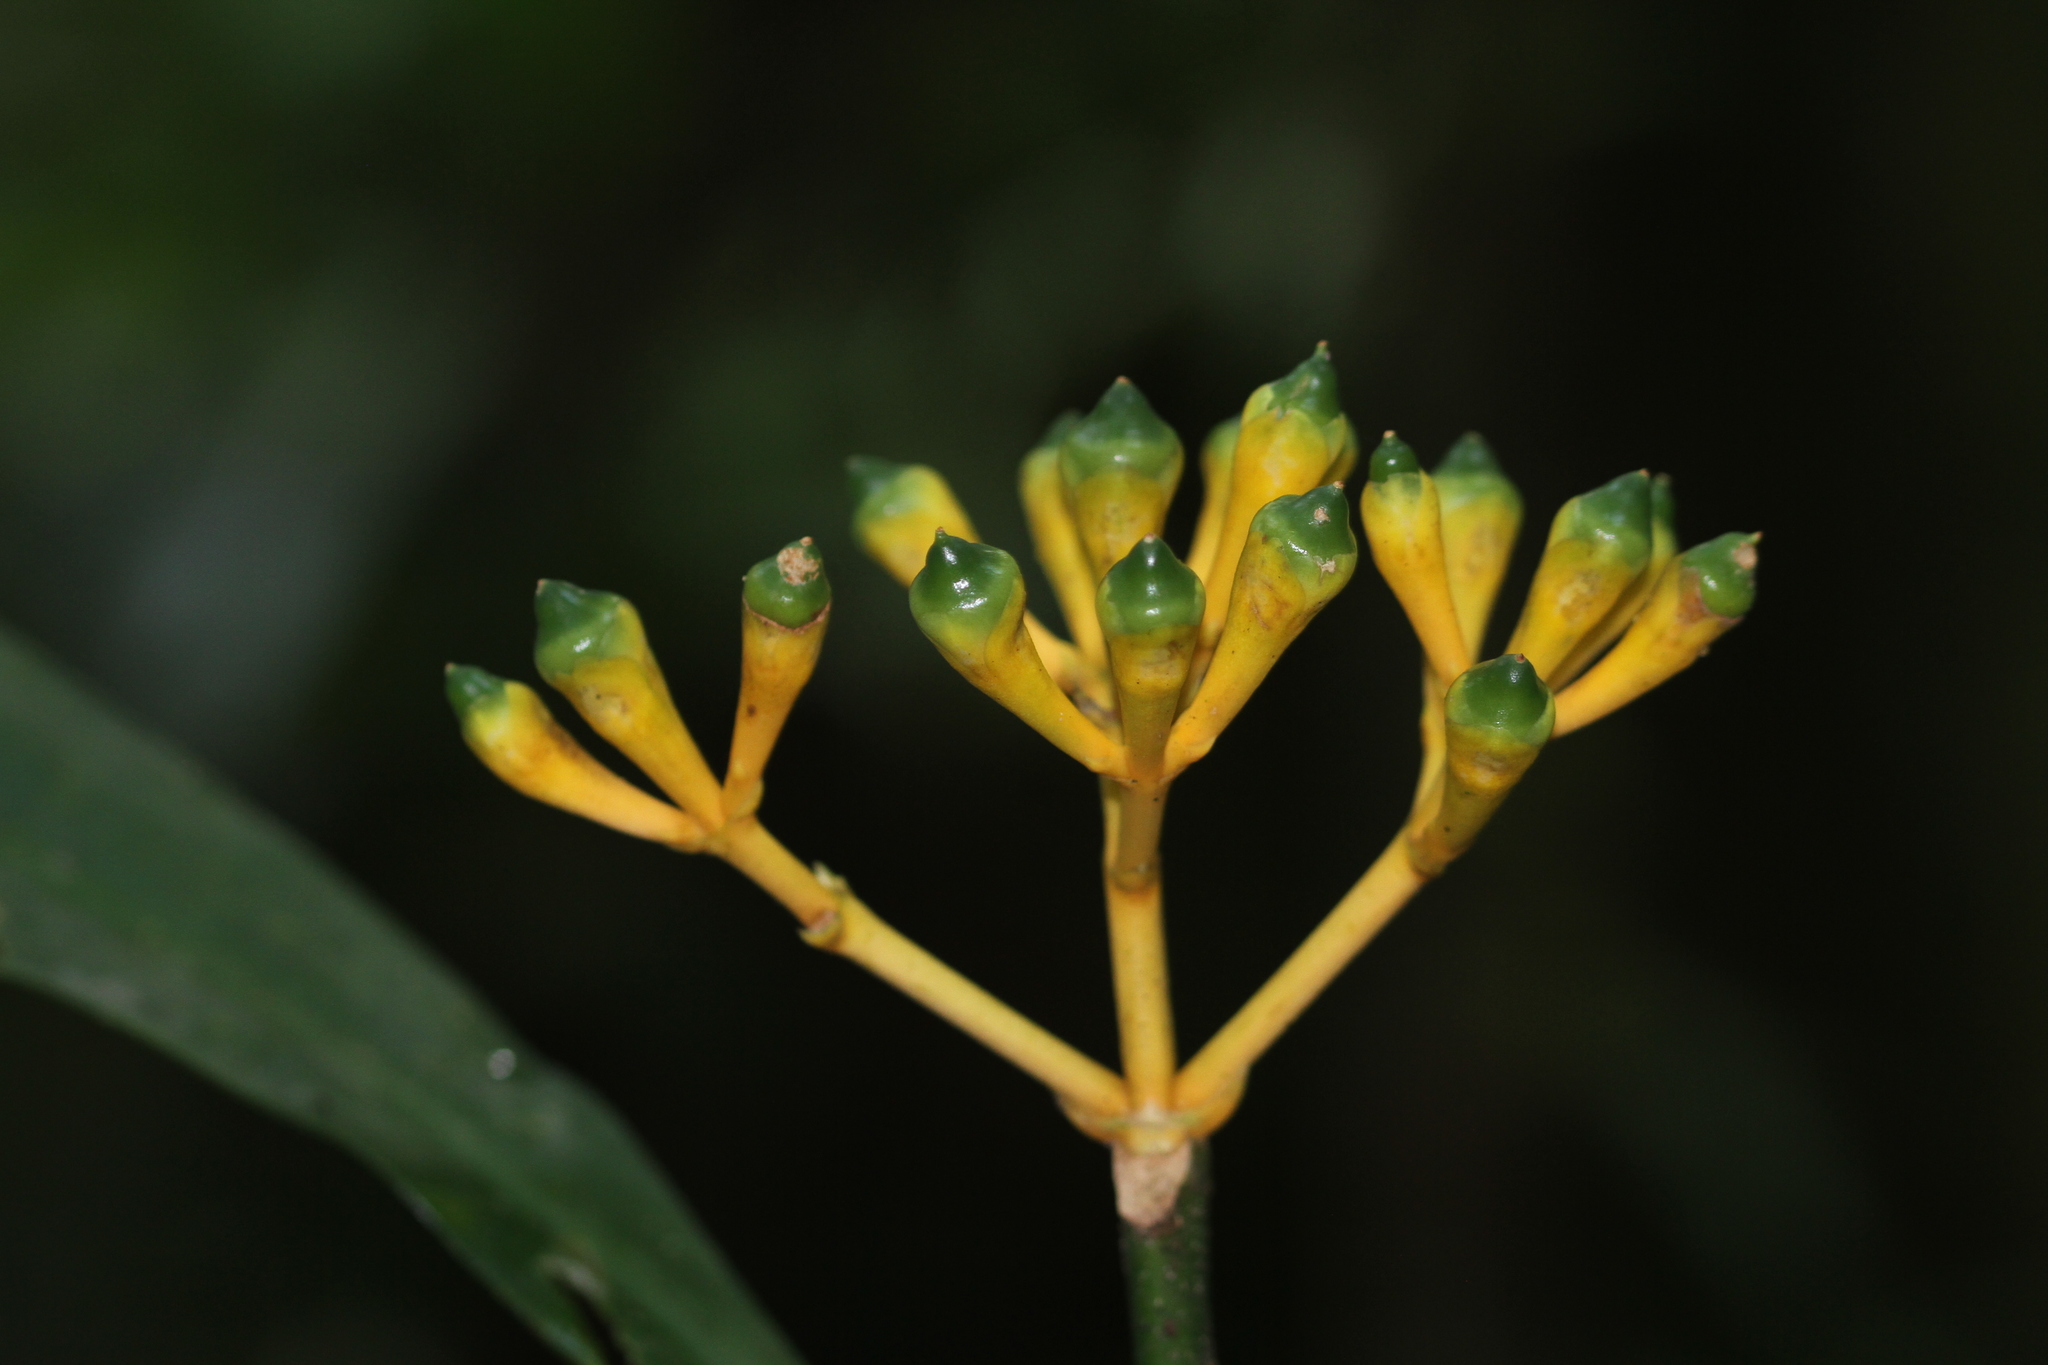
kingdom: Plantae
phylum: Tracheophyta
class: Magnoliopsida
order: Gentianales
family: Gentianaceae
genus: Potalia
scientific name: Potalia amara
